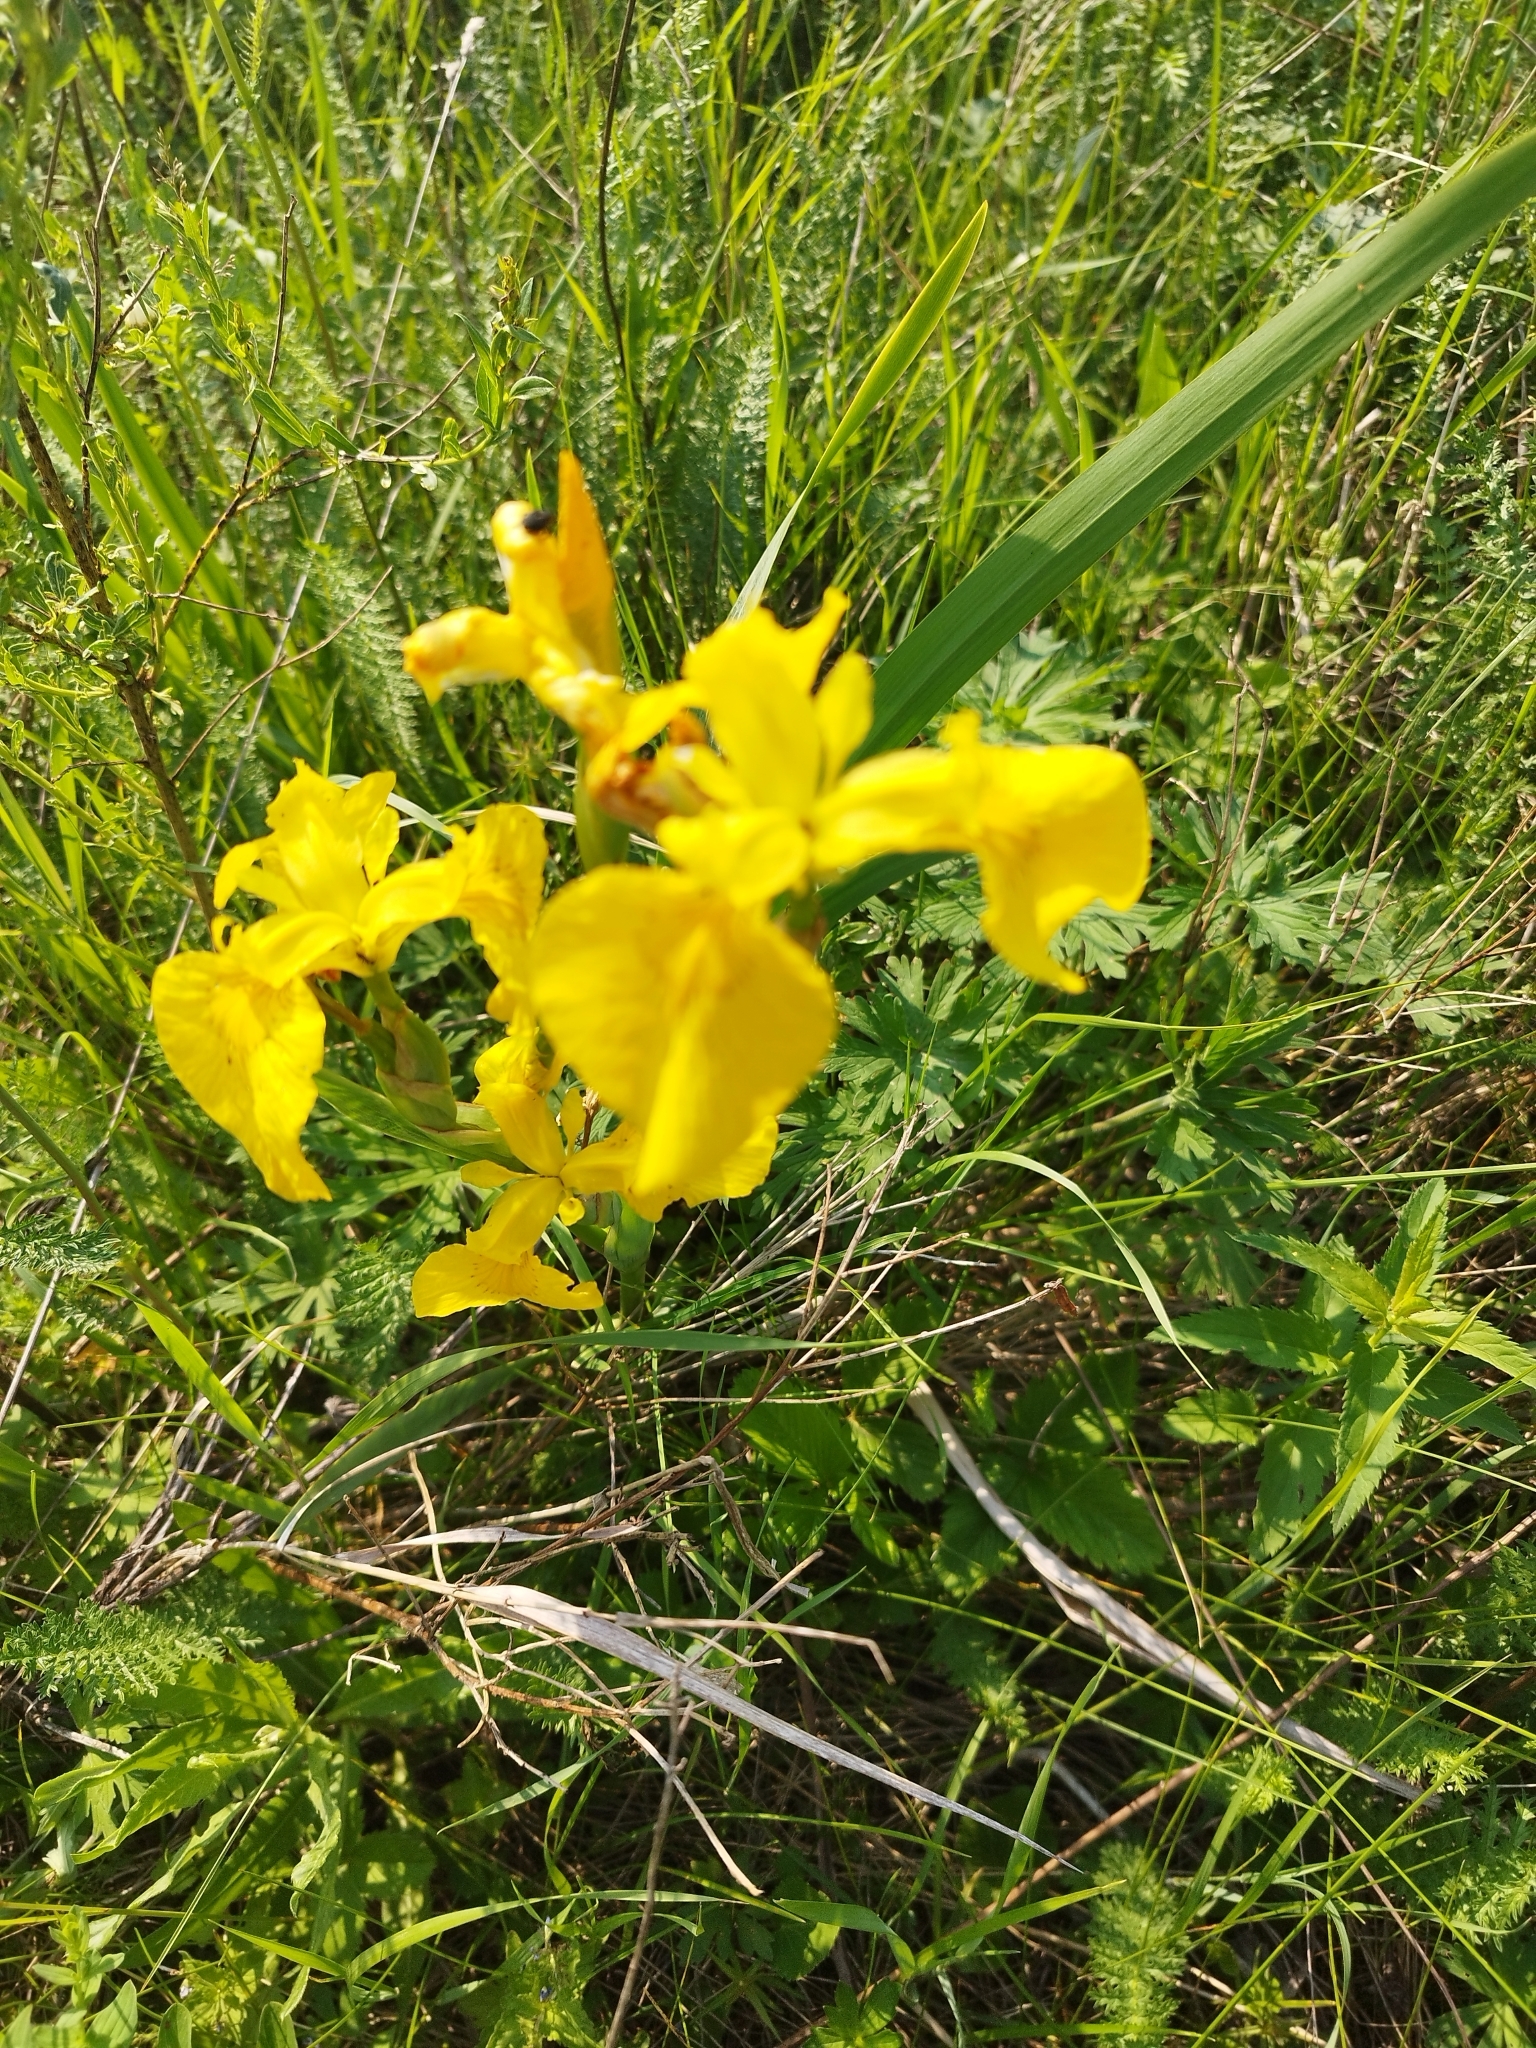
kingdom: Plantae
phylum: Tracheophyta
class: Liliopsida
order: Asparagales
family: Iridaceae
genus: Iris
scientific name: Iris pseudacorus
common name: Yellow flag
